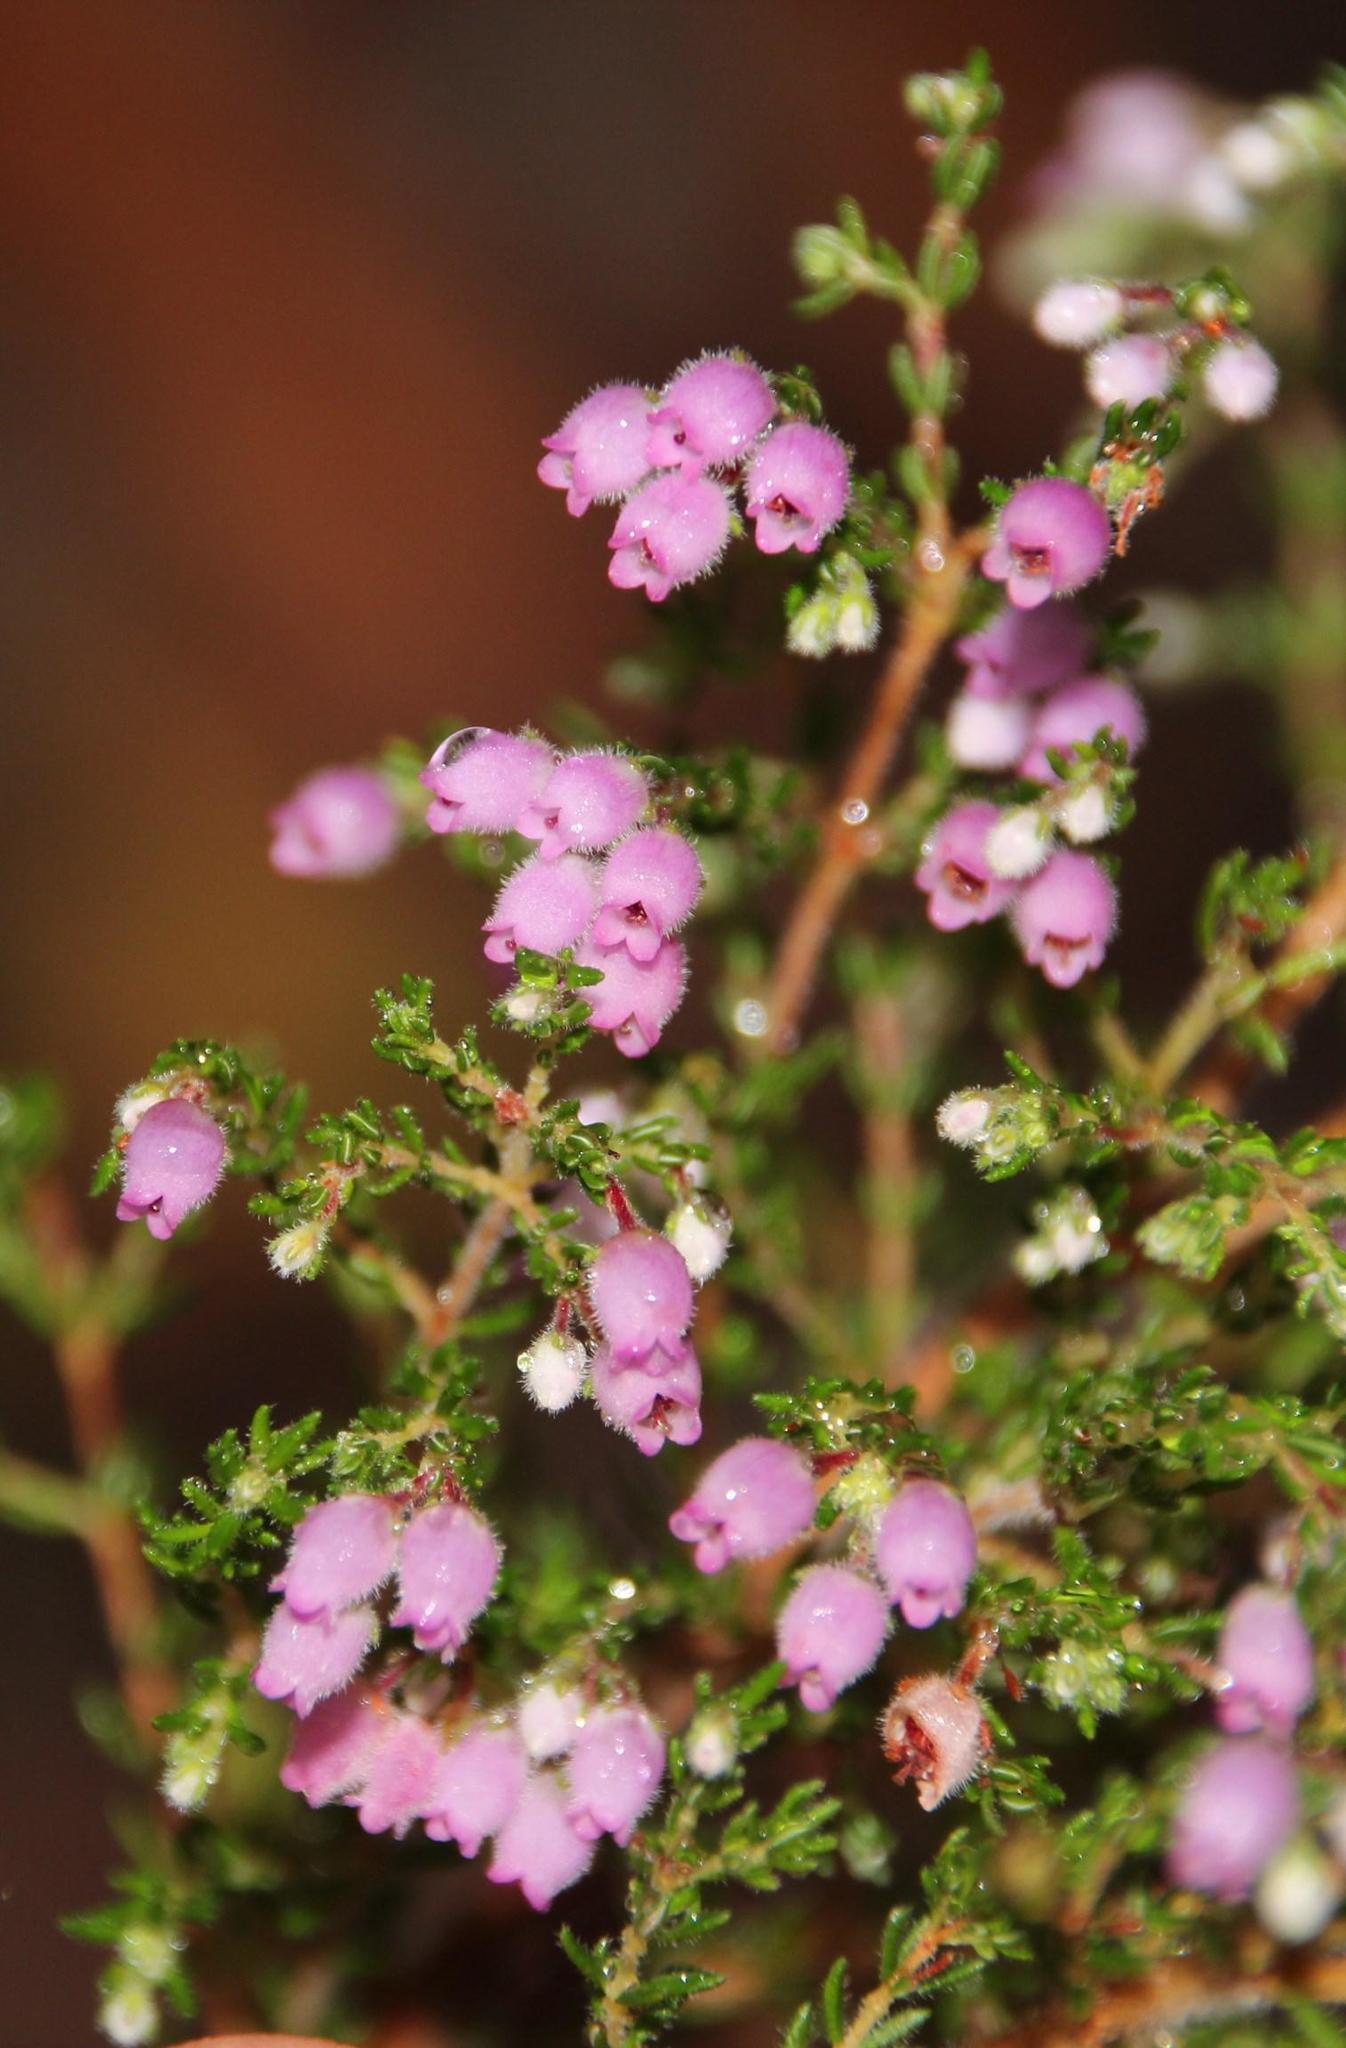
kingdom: Plantae
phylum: Tracheophyta
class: Magnoliopsida
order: Ericales
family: Ericaceae
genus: Erica
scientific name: Erica hirtiflora
